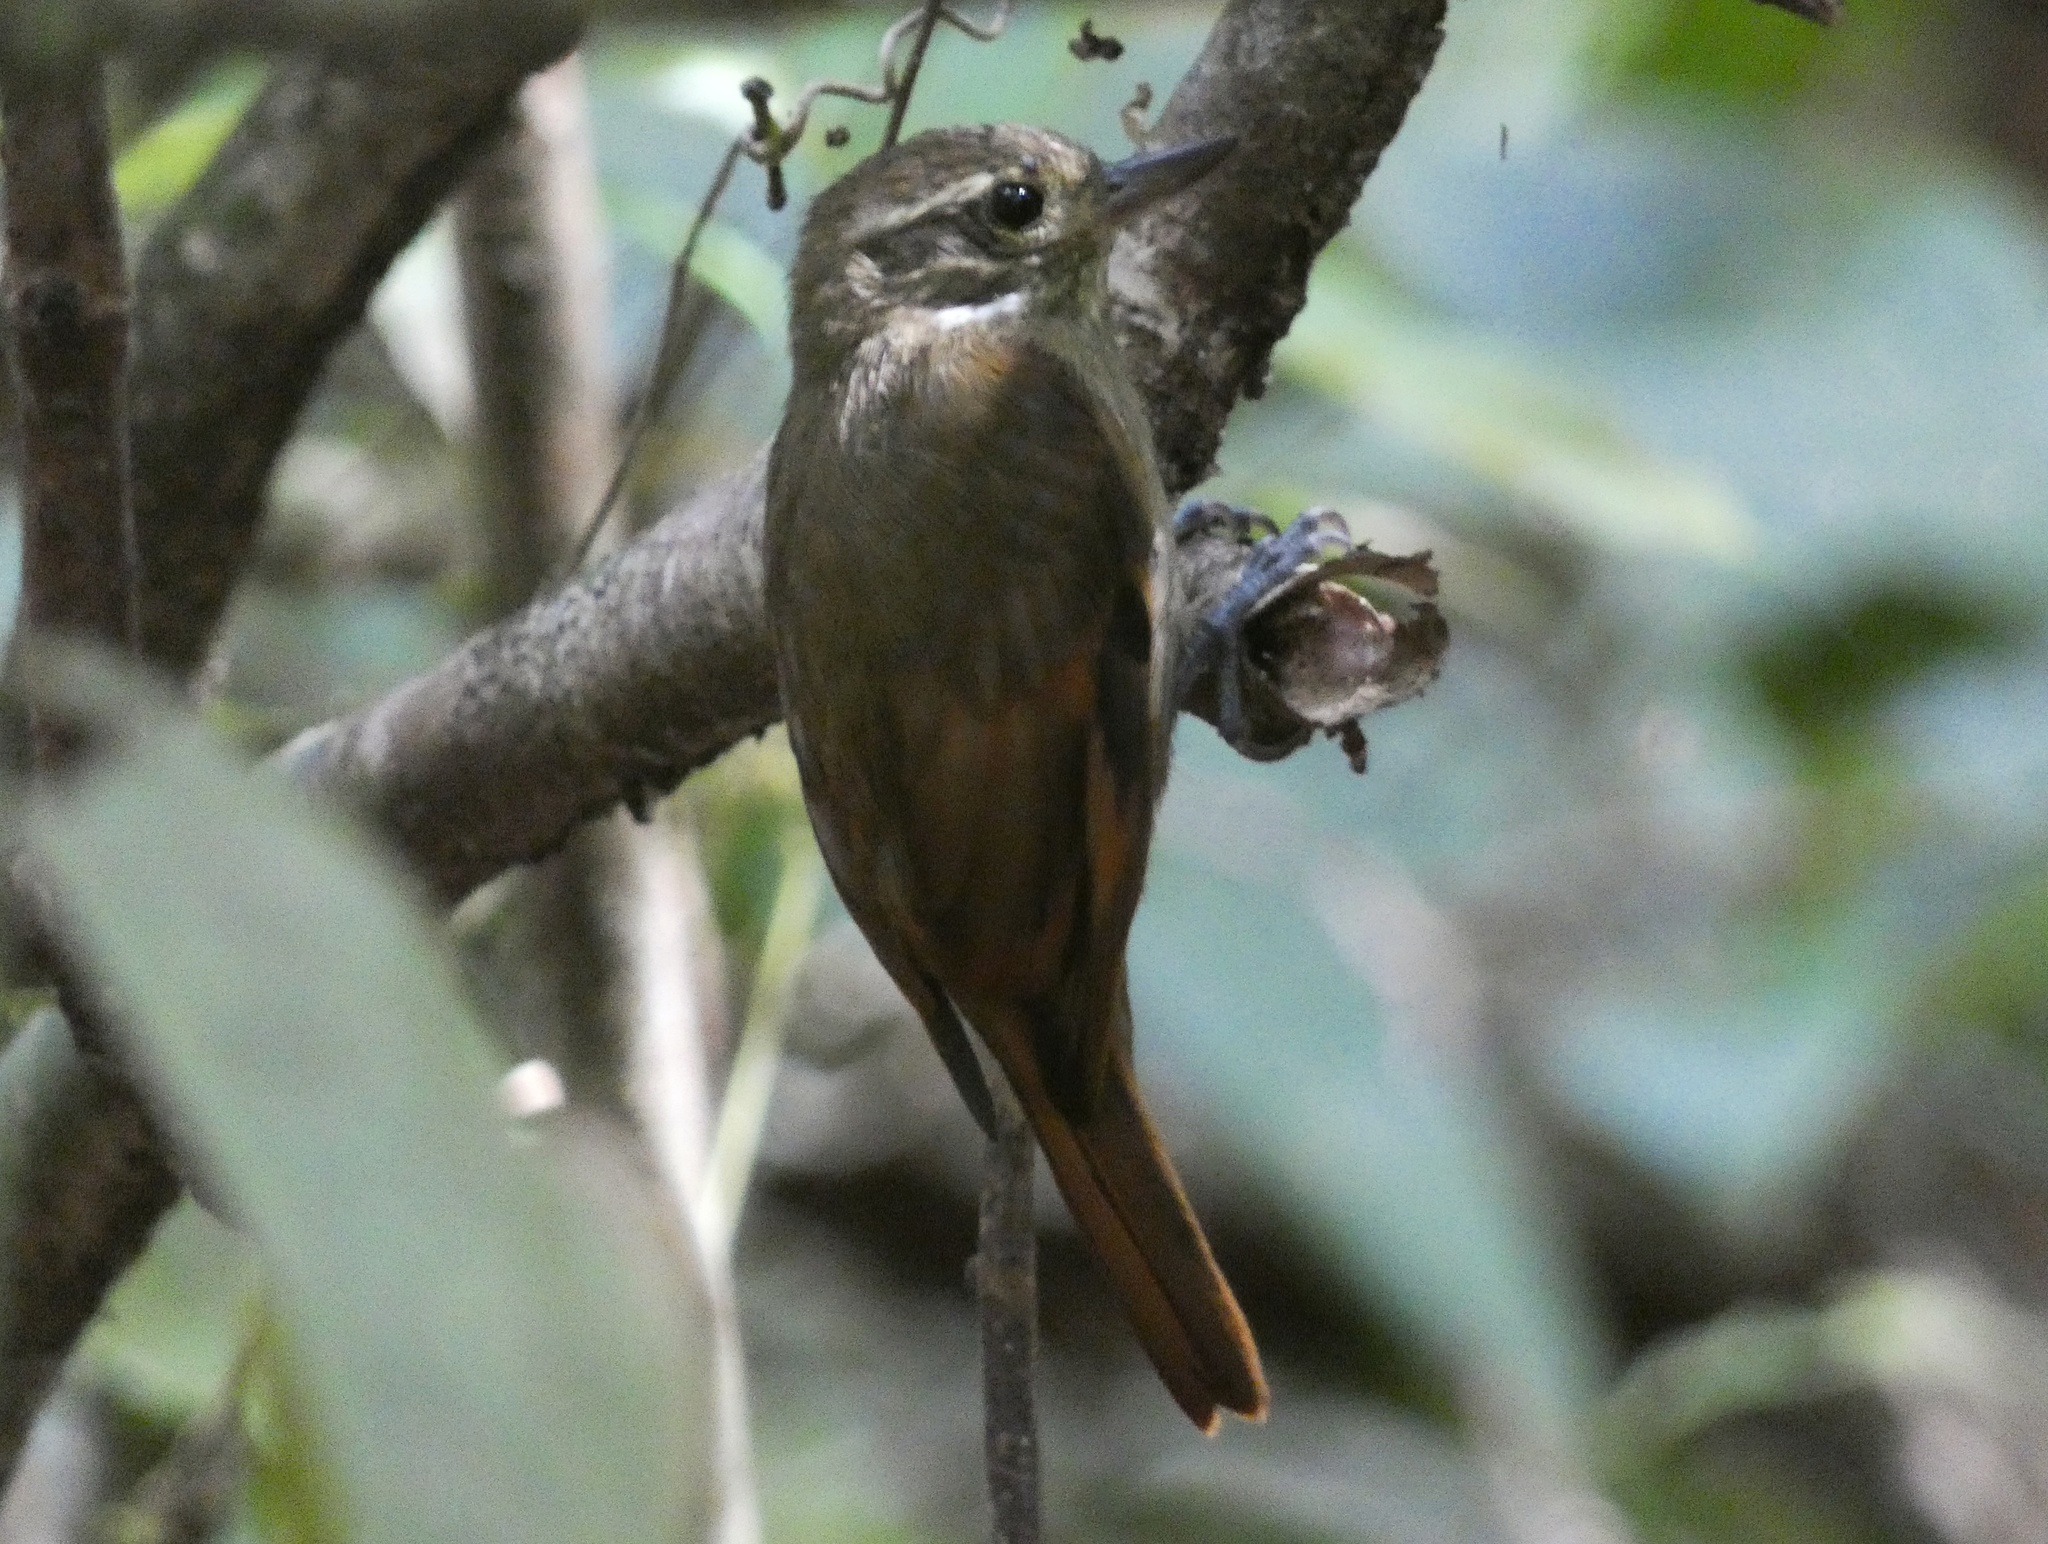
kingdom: Animalia
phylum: Chordata
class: Aves
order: Passeriformes
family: Furnariidae
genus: Xenops
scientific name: Xenops minutus
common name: Plain xenops
